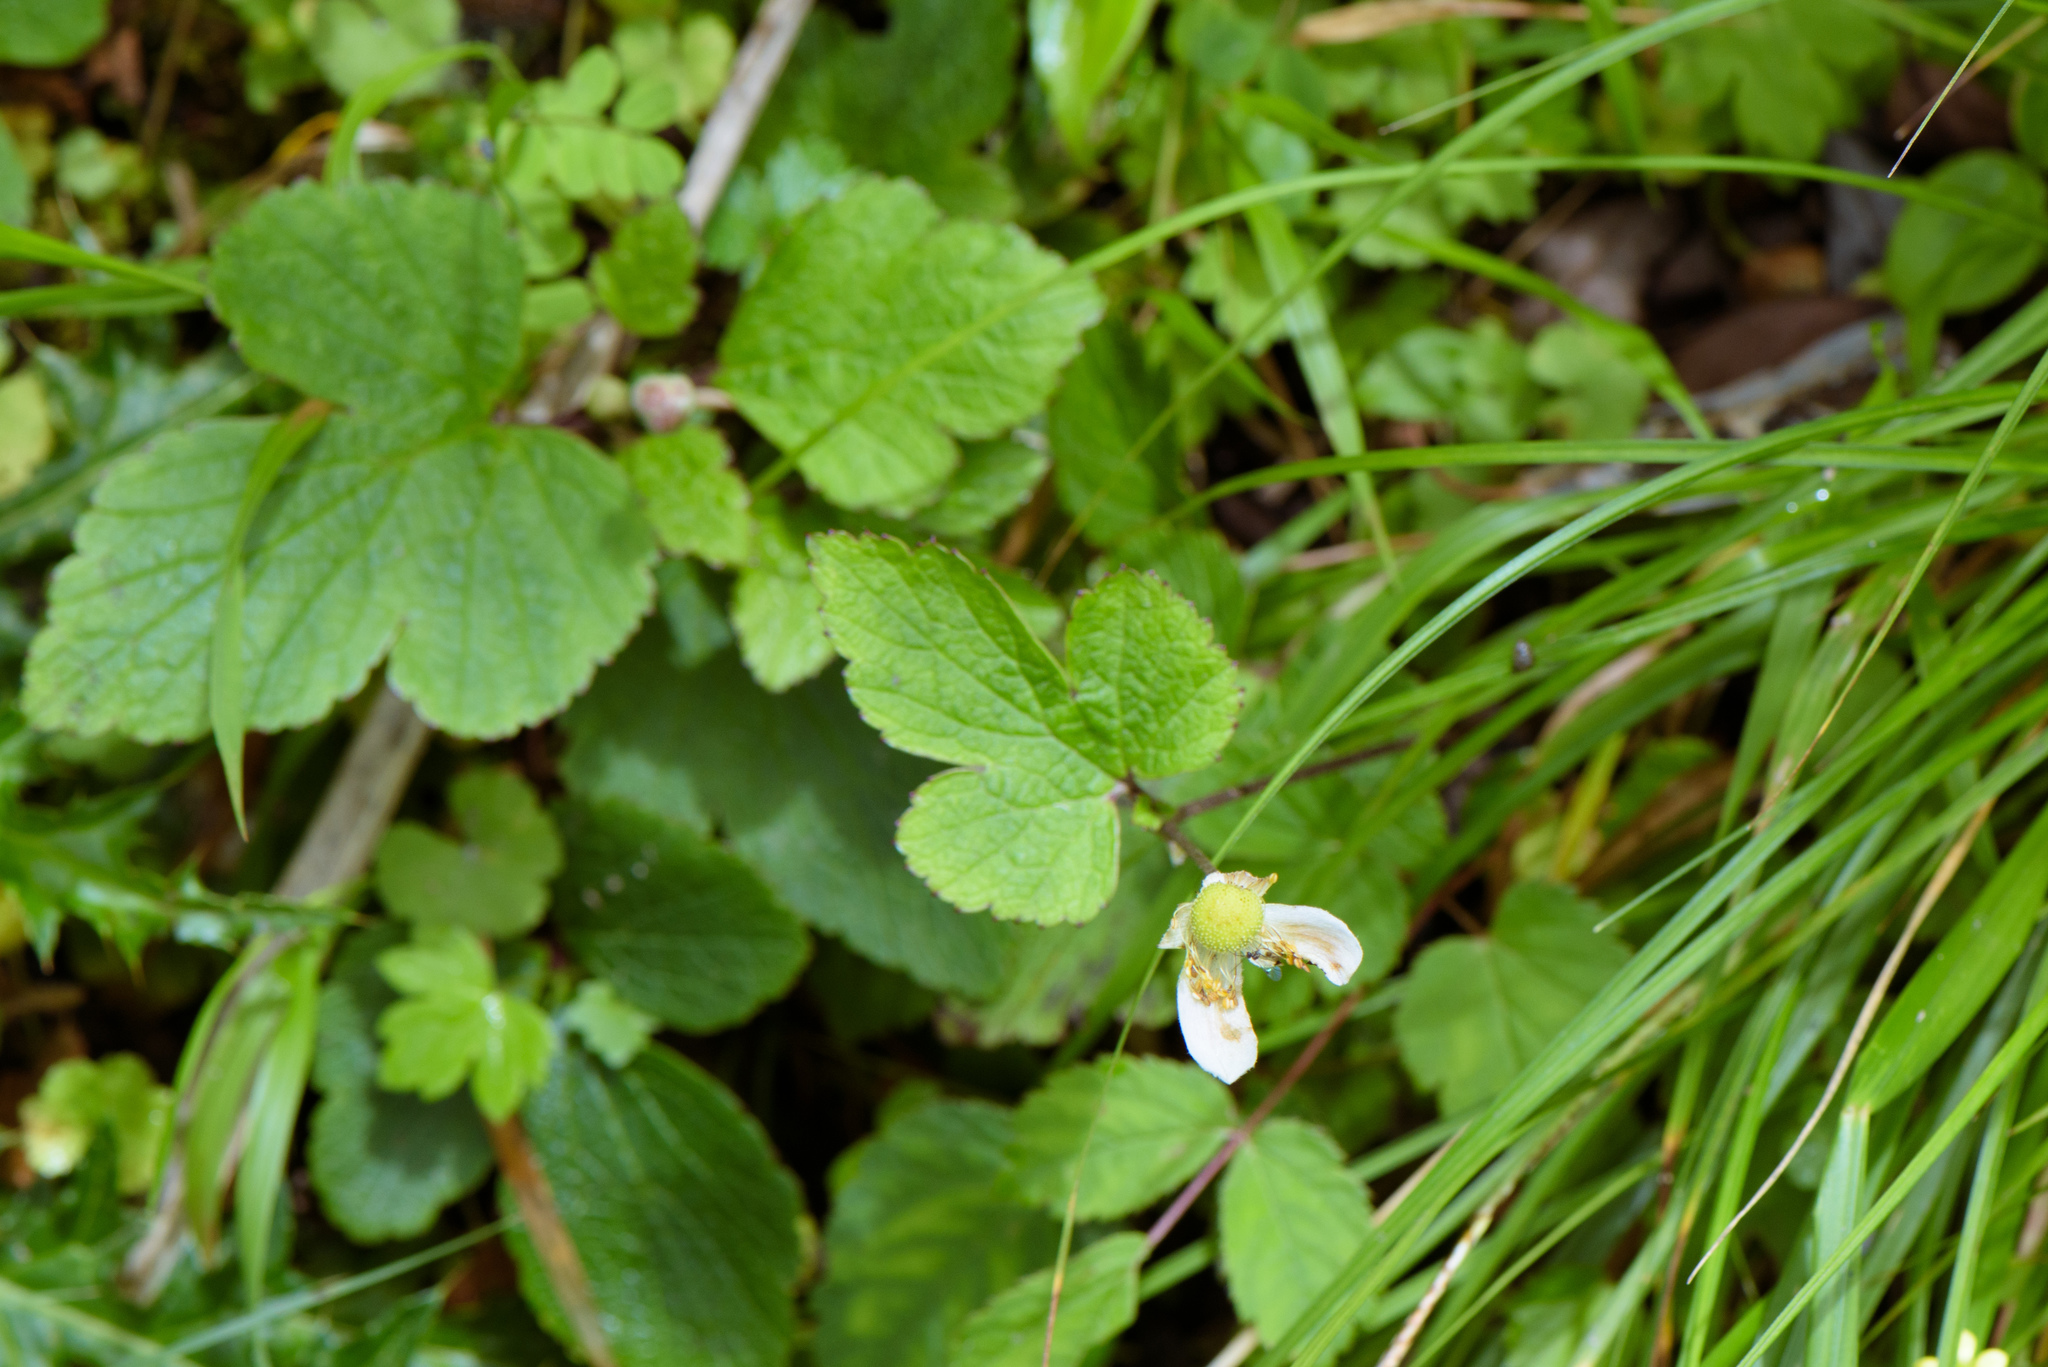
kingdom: Plantae
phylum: Tracheophyta
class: Magnoliopsida
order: Ranunculales
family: Ranunculaceae
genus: Eriocapitella
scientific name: Eriocapitella vitifolia
